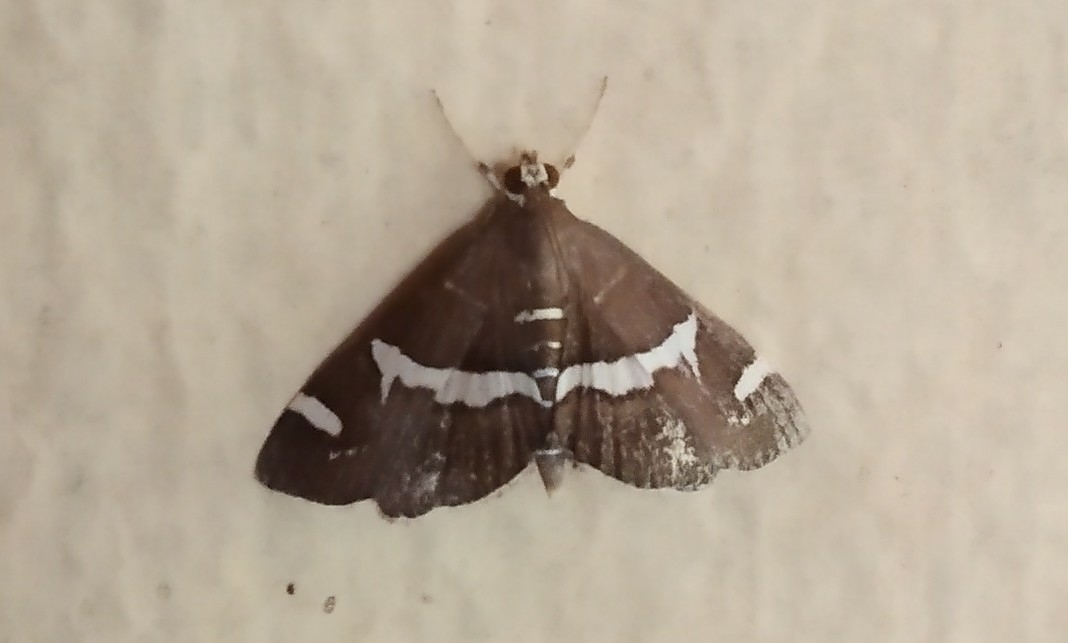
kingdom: Animalia
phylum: Arthropoda
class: Insecta
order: Lepidoptera
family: Crambidae
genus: Spoladea
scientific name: Spoladea recurvalis
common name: Beet webworm moth
